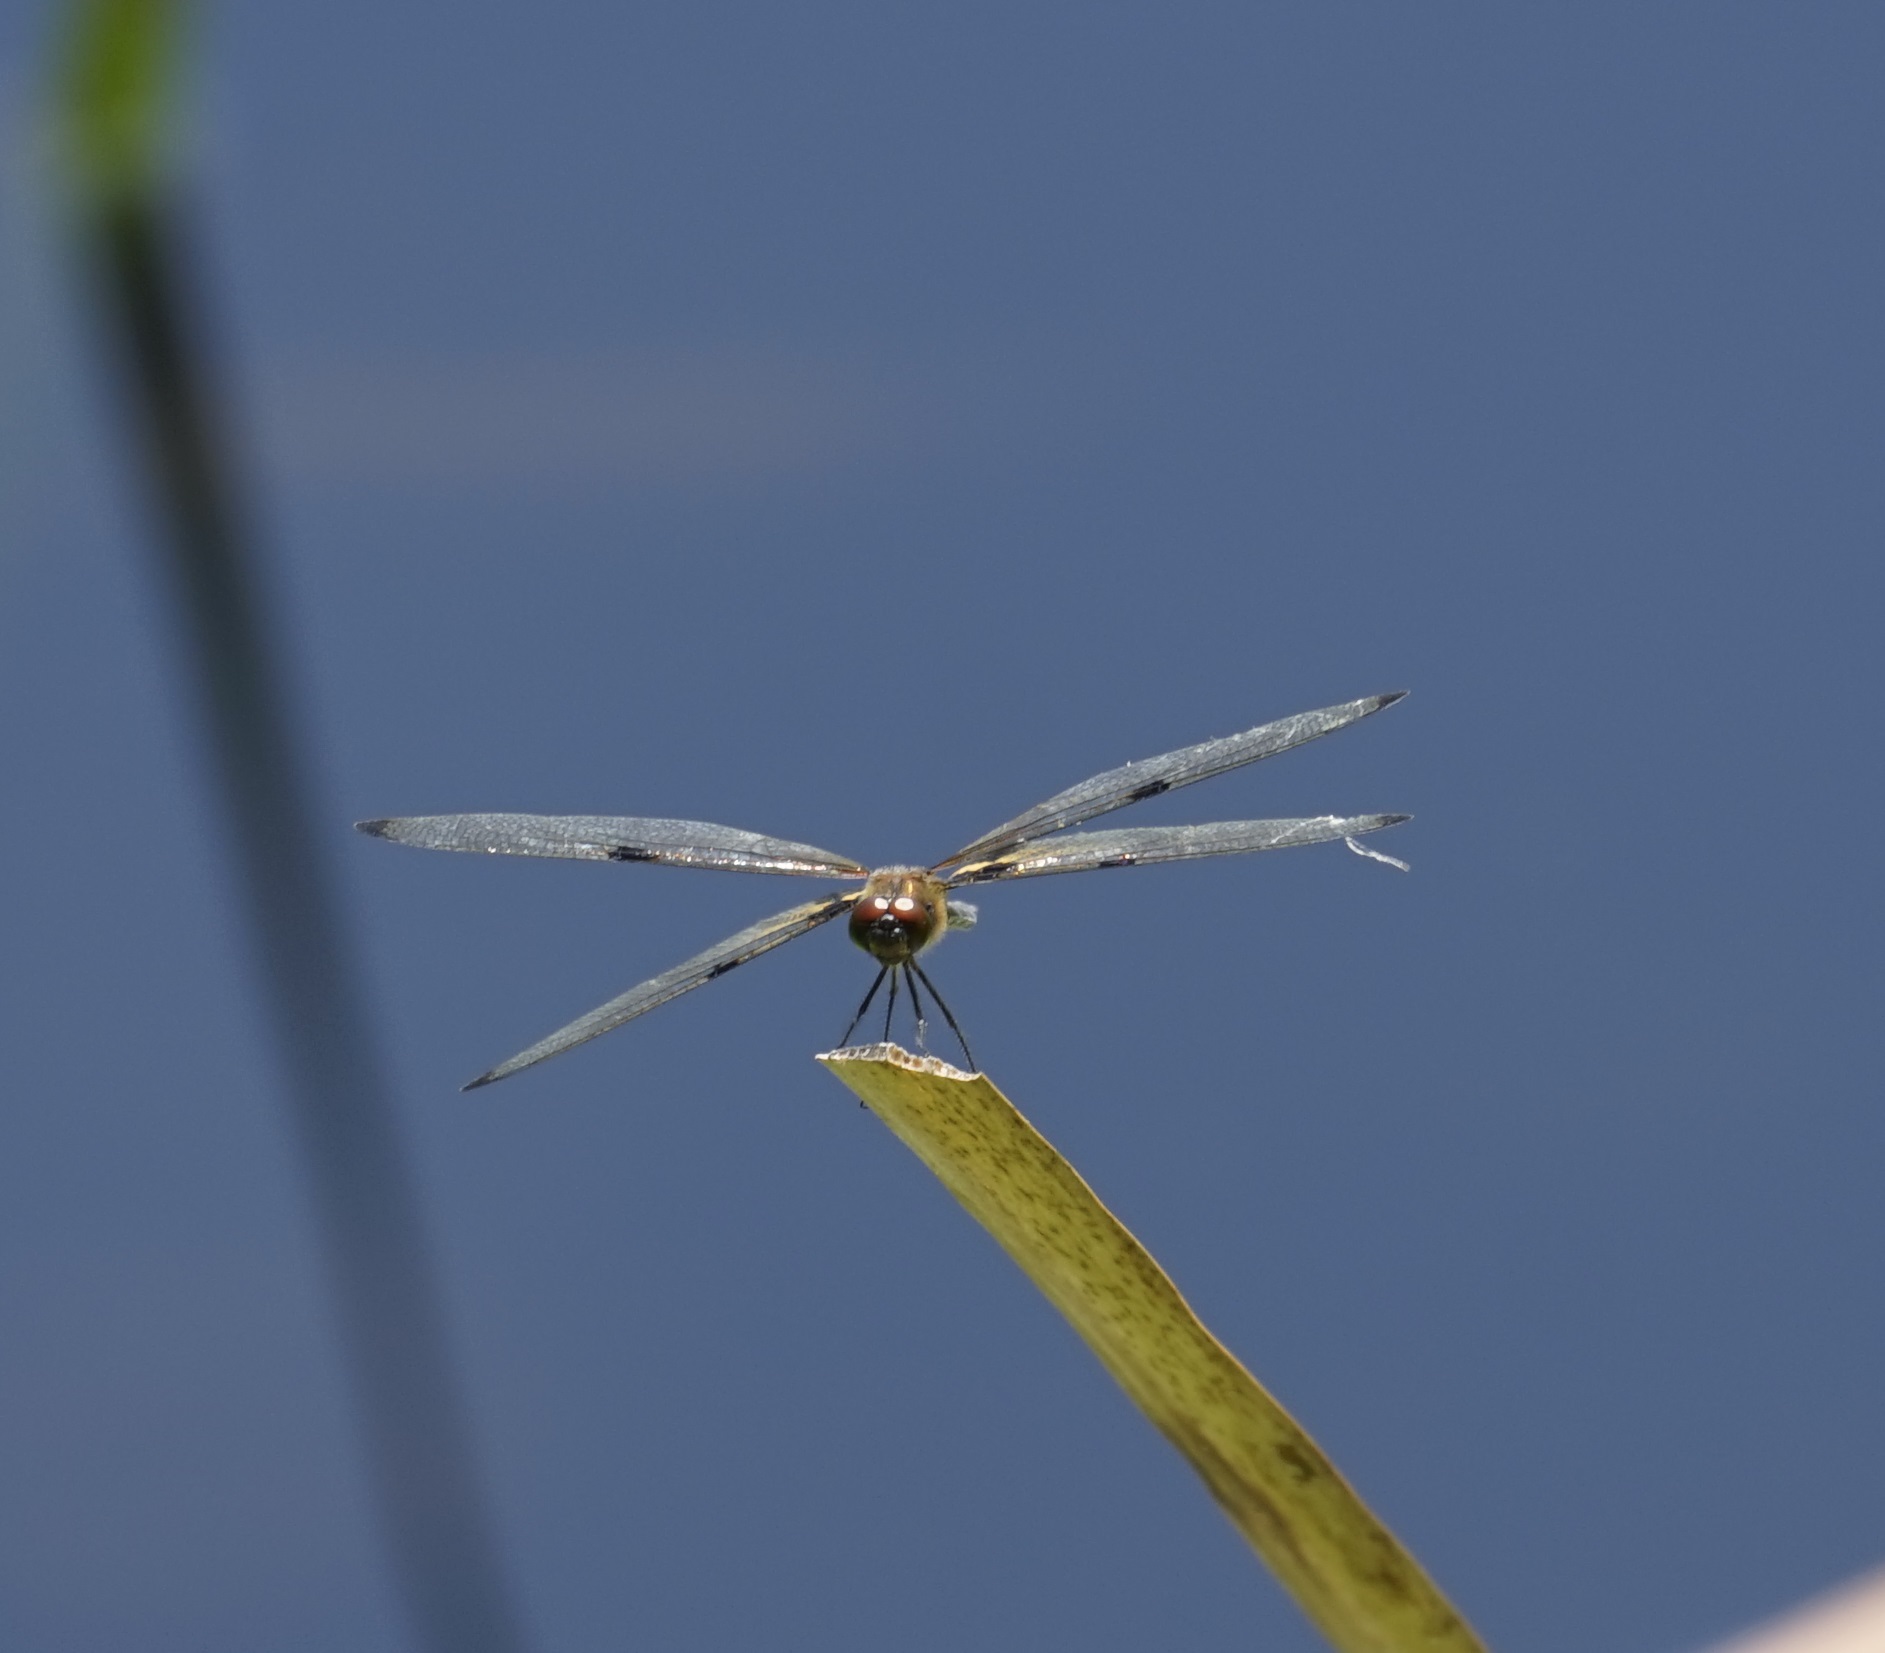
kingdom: Animalia
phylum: Arthropoda
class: Insecta
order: Odonata
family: Libellulidae
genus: Rhyothemis
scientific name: Rhyothemis phyllis
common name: Yellow-barred flutterer
